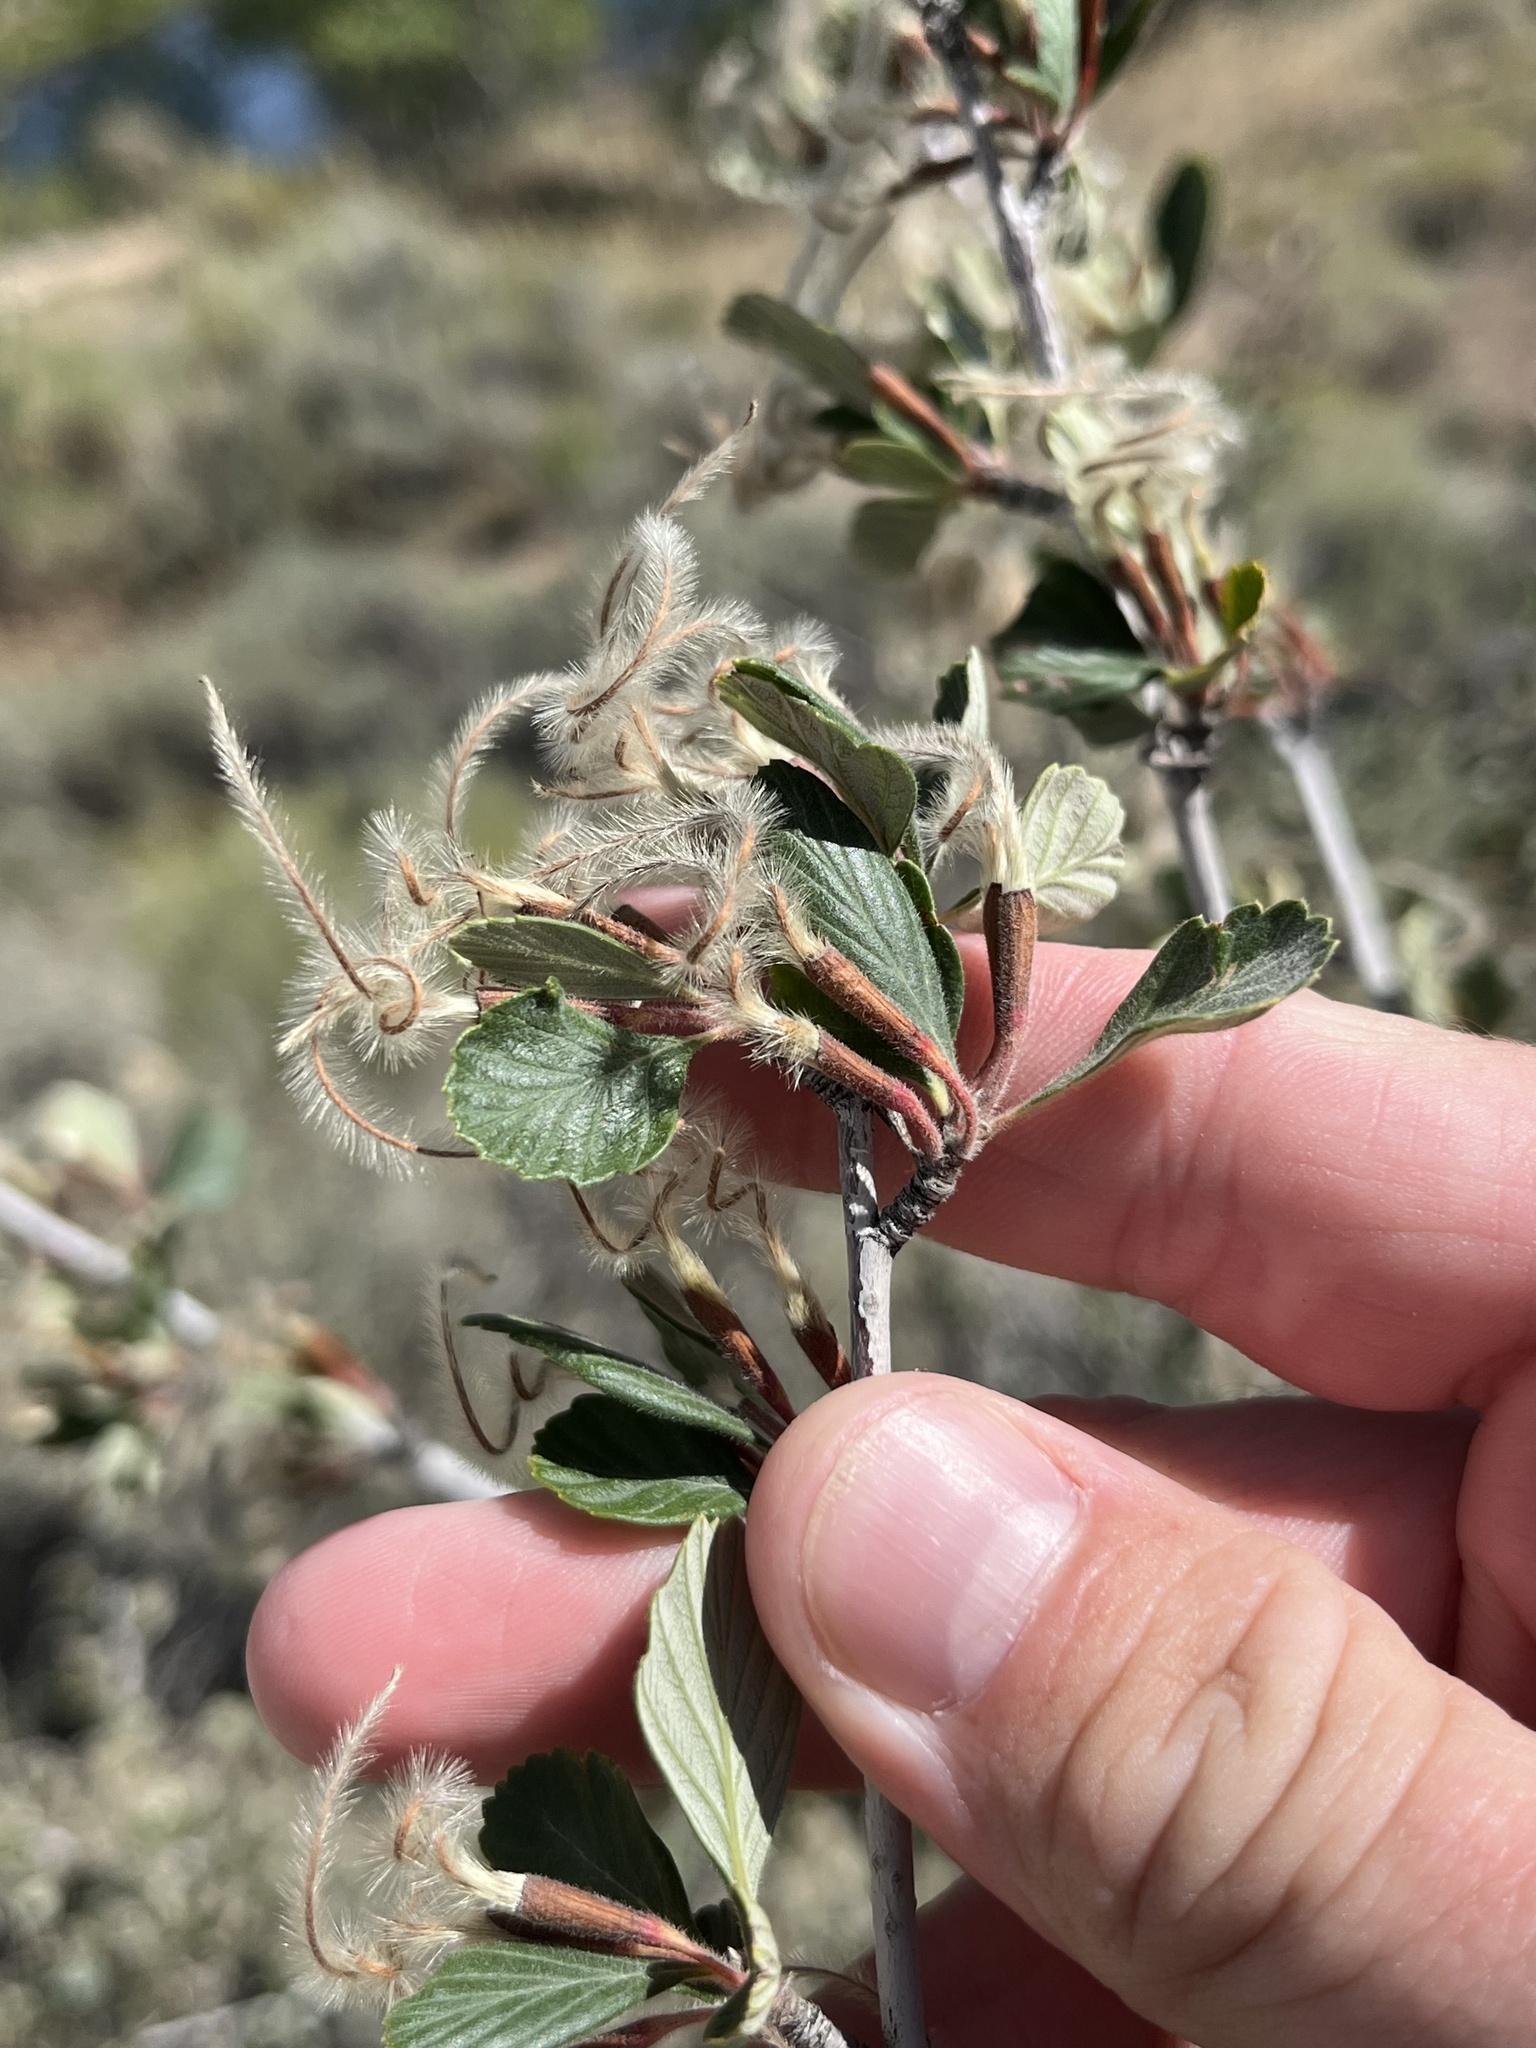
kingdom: Plantae
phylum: Tracheophyta
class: Magnoliopsida
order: Rosales
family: Rosaceae
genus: Cercocarpus
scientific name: Cercocarpus montanus
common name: Alder-leaf cercocarpus
